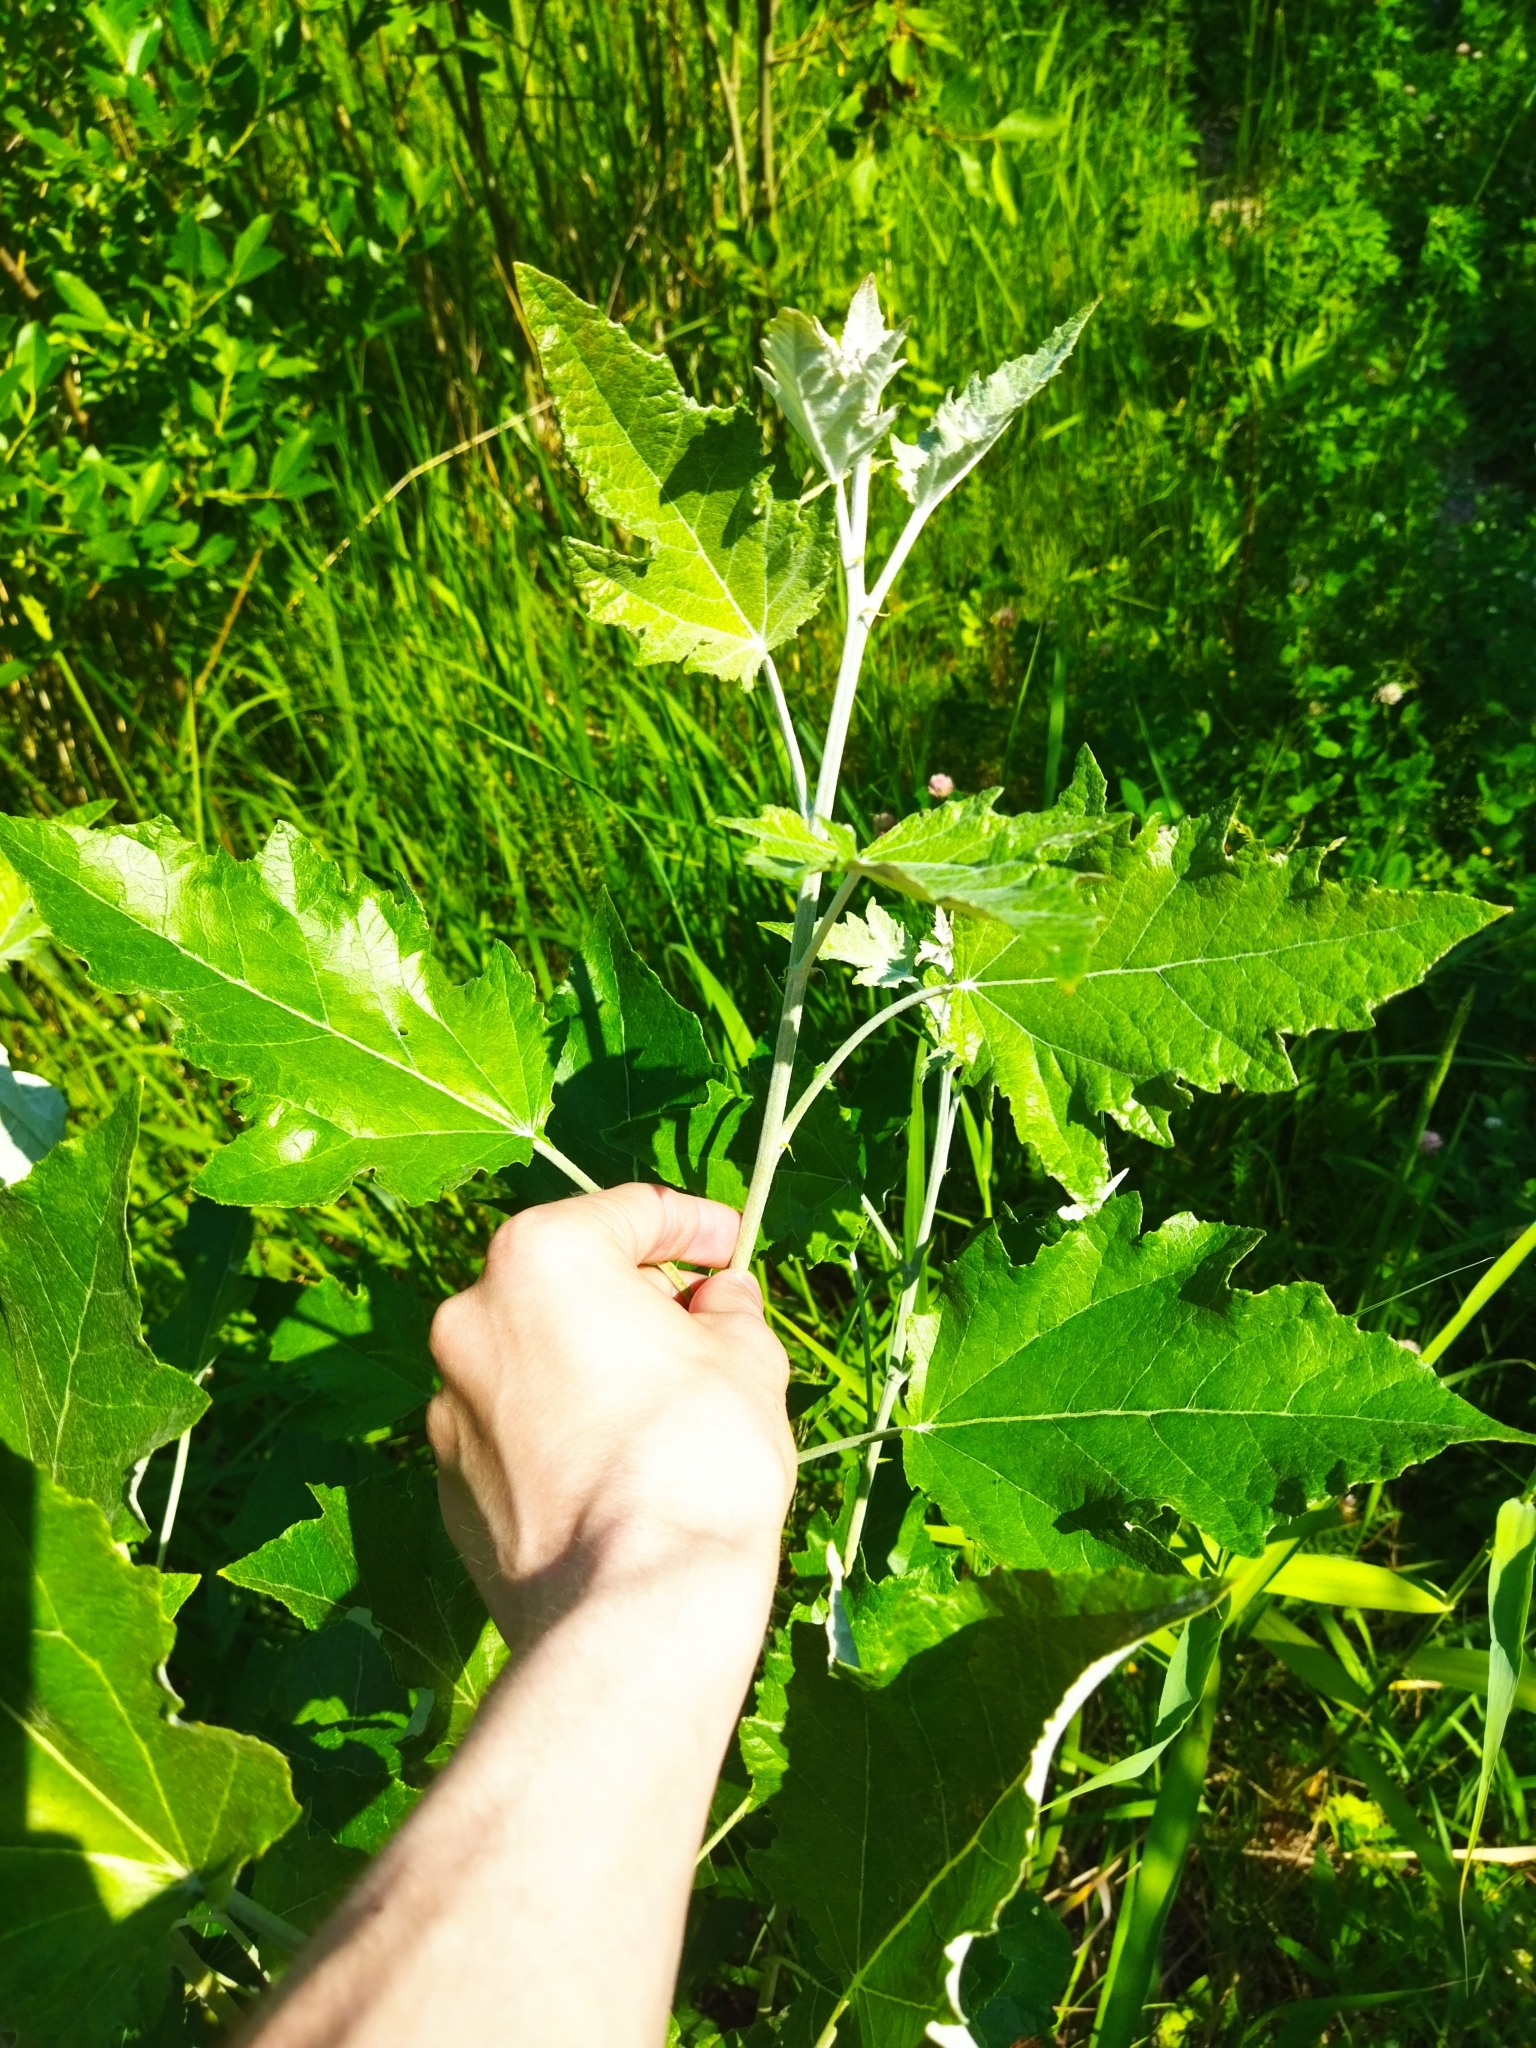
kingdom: Plantae
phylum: Tracheophyta
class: Magnoliopsida
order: Malpighiales
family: Salicaceae
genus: Populus
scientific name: Populus alba
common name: White poplar
